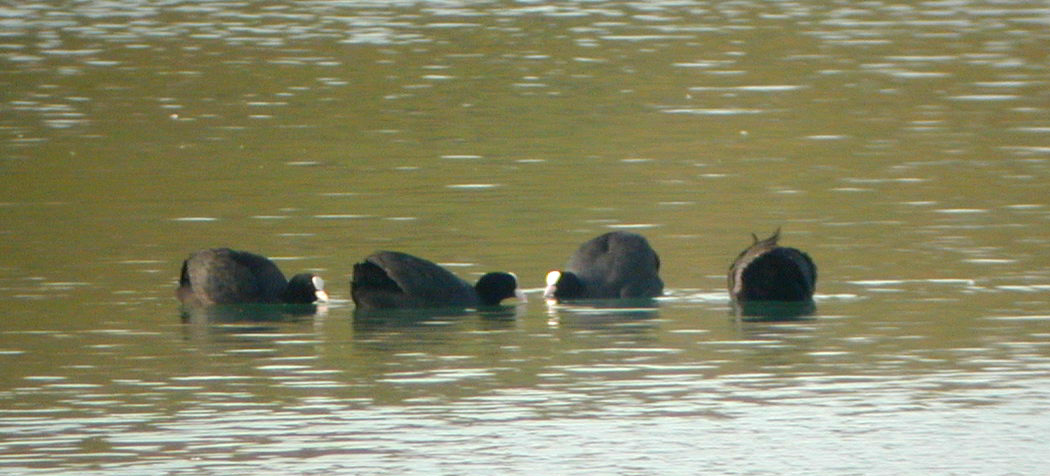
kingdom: Animalia
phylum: Chordata
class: Aves
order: Gruiformes
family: Rallidae
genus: Fulica
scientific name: Fulica atra
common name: Eurasian coot
